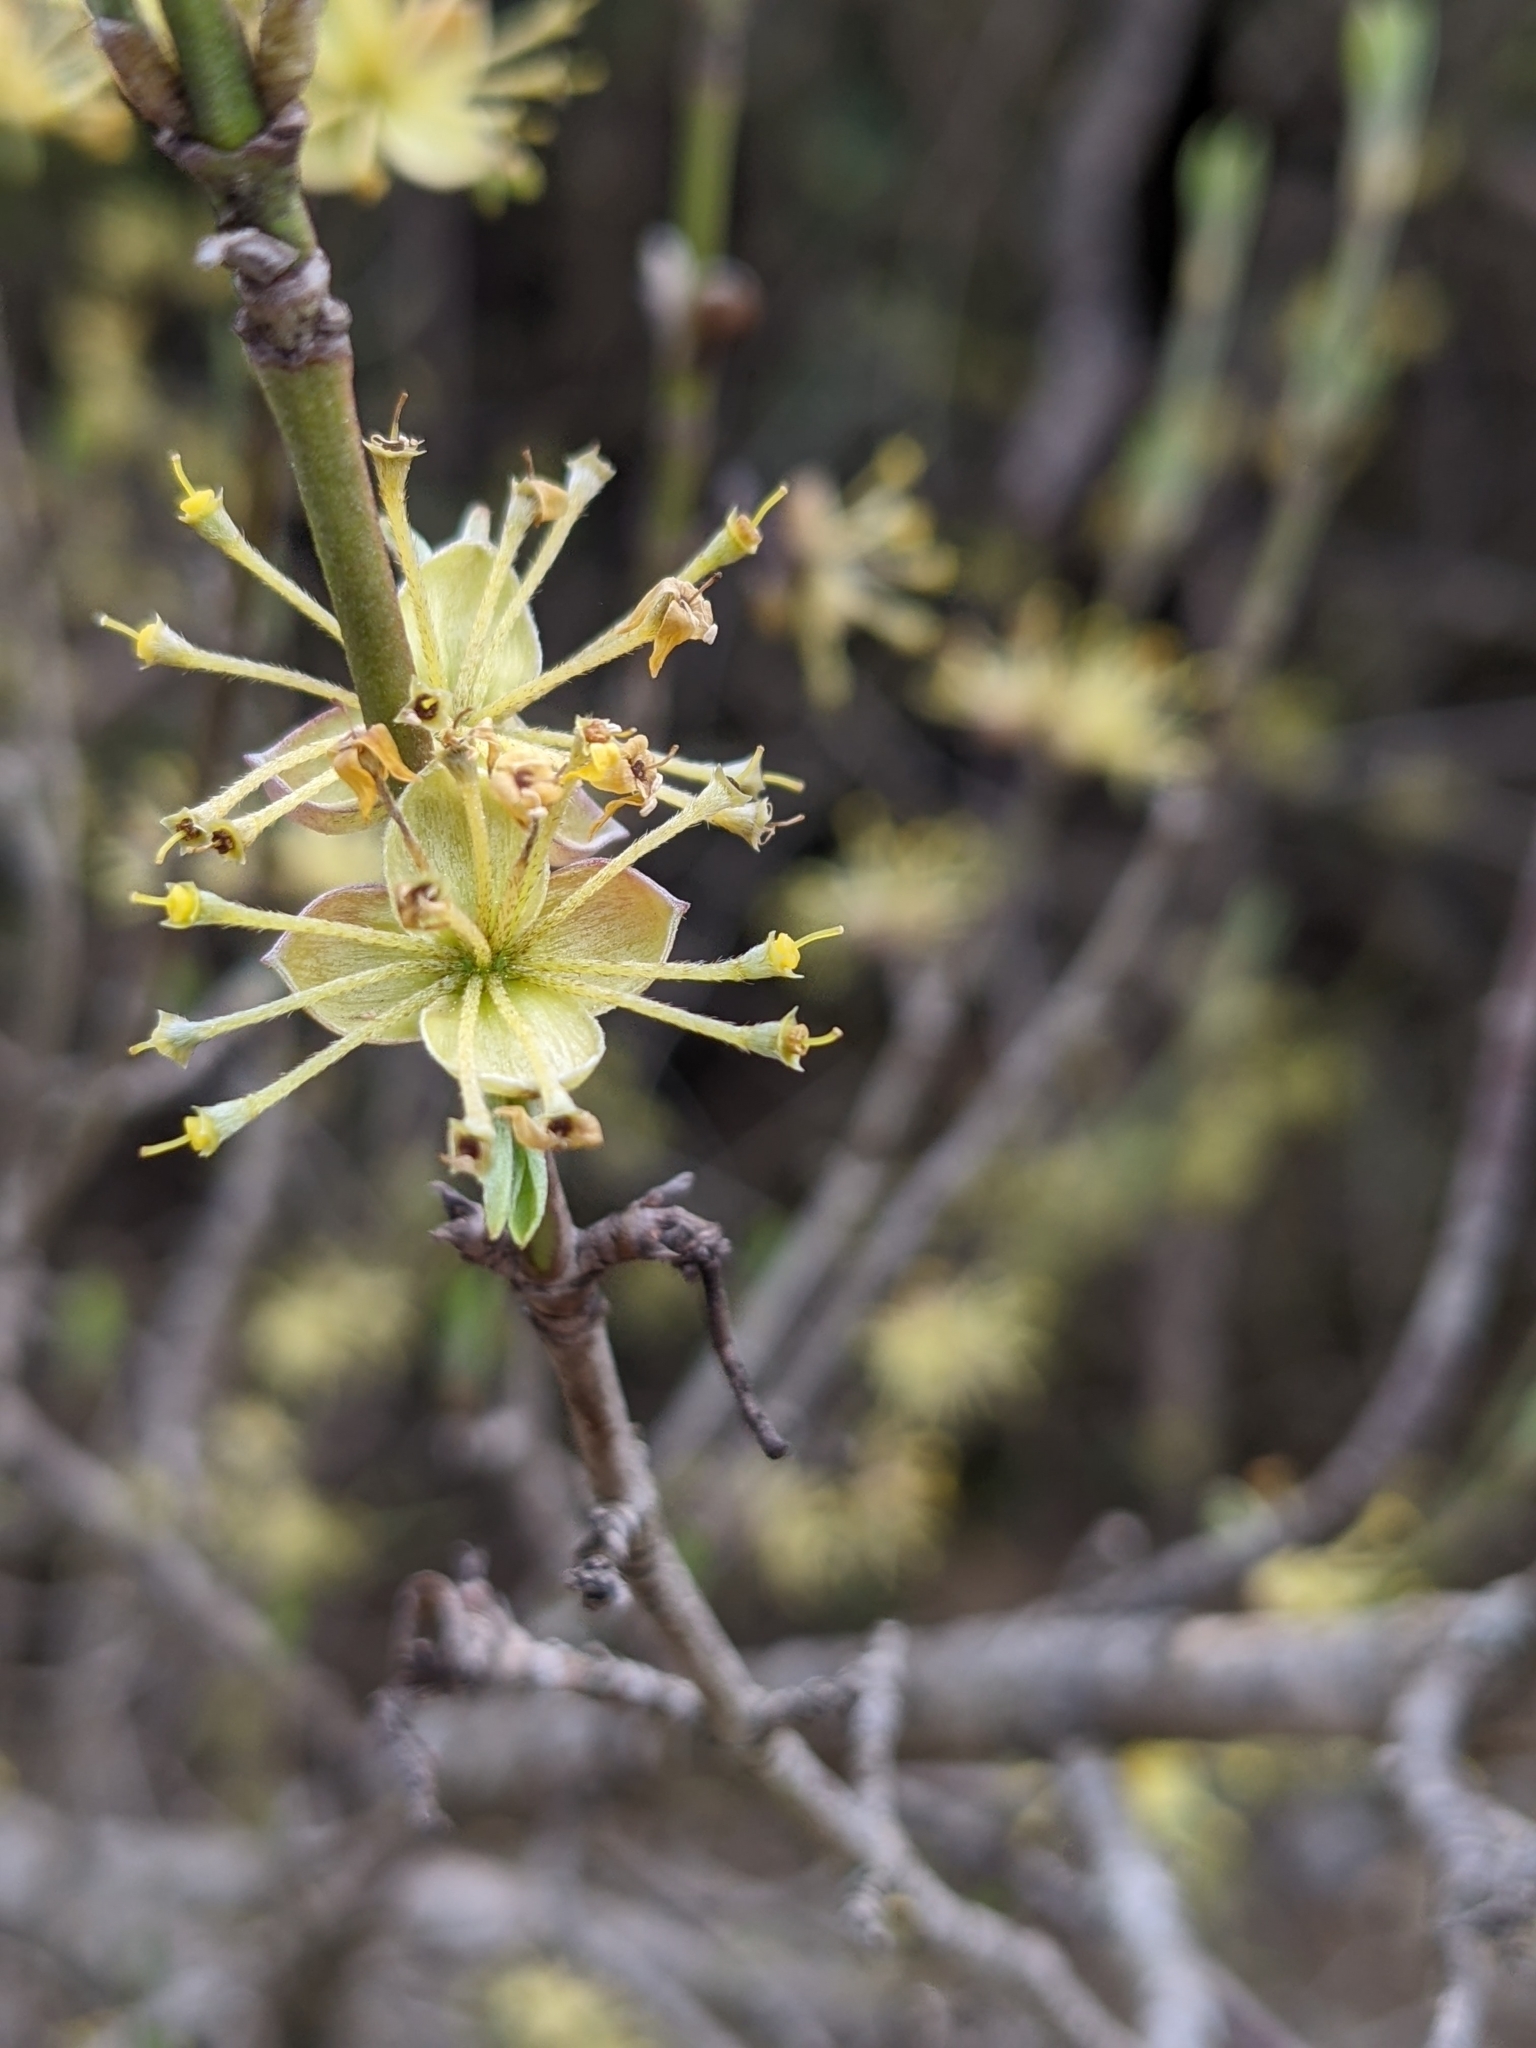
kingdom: Plantae
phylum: Tracheophyta
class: Magnoliopsida
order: Cornales
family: Cornaceae
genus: Cornus
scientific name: Cornus mas
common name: Cornelian-cherry
